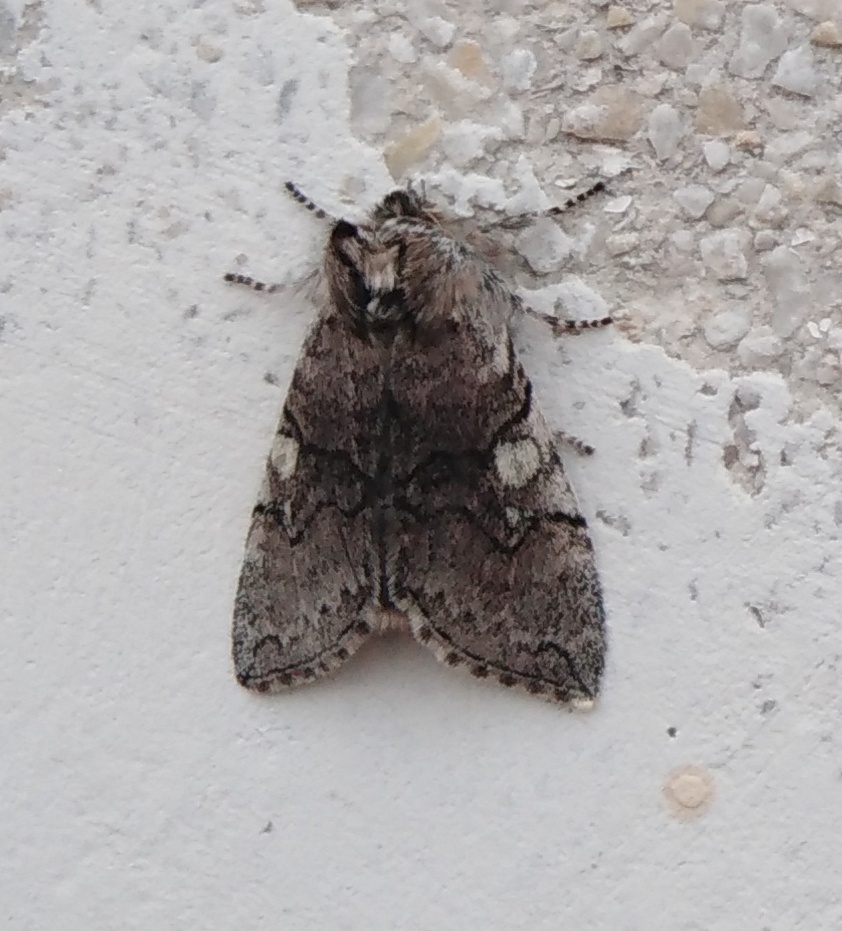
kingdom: Animalia
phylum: Arthropoda
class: Insecta
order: Lepidoptera
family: Drepanidae
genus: Achlya
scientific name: Achlya flavicornis
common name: Yellow horned
